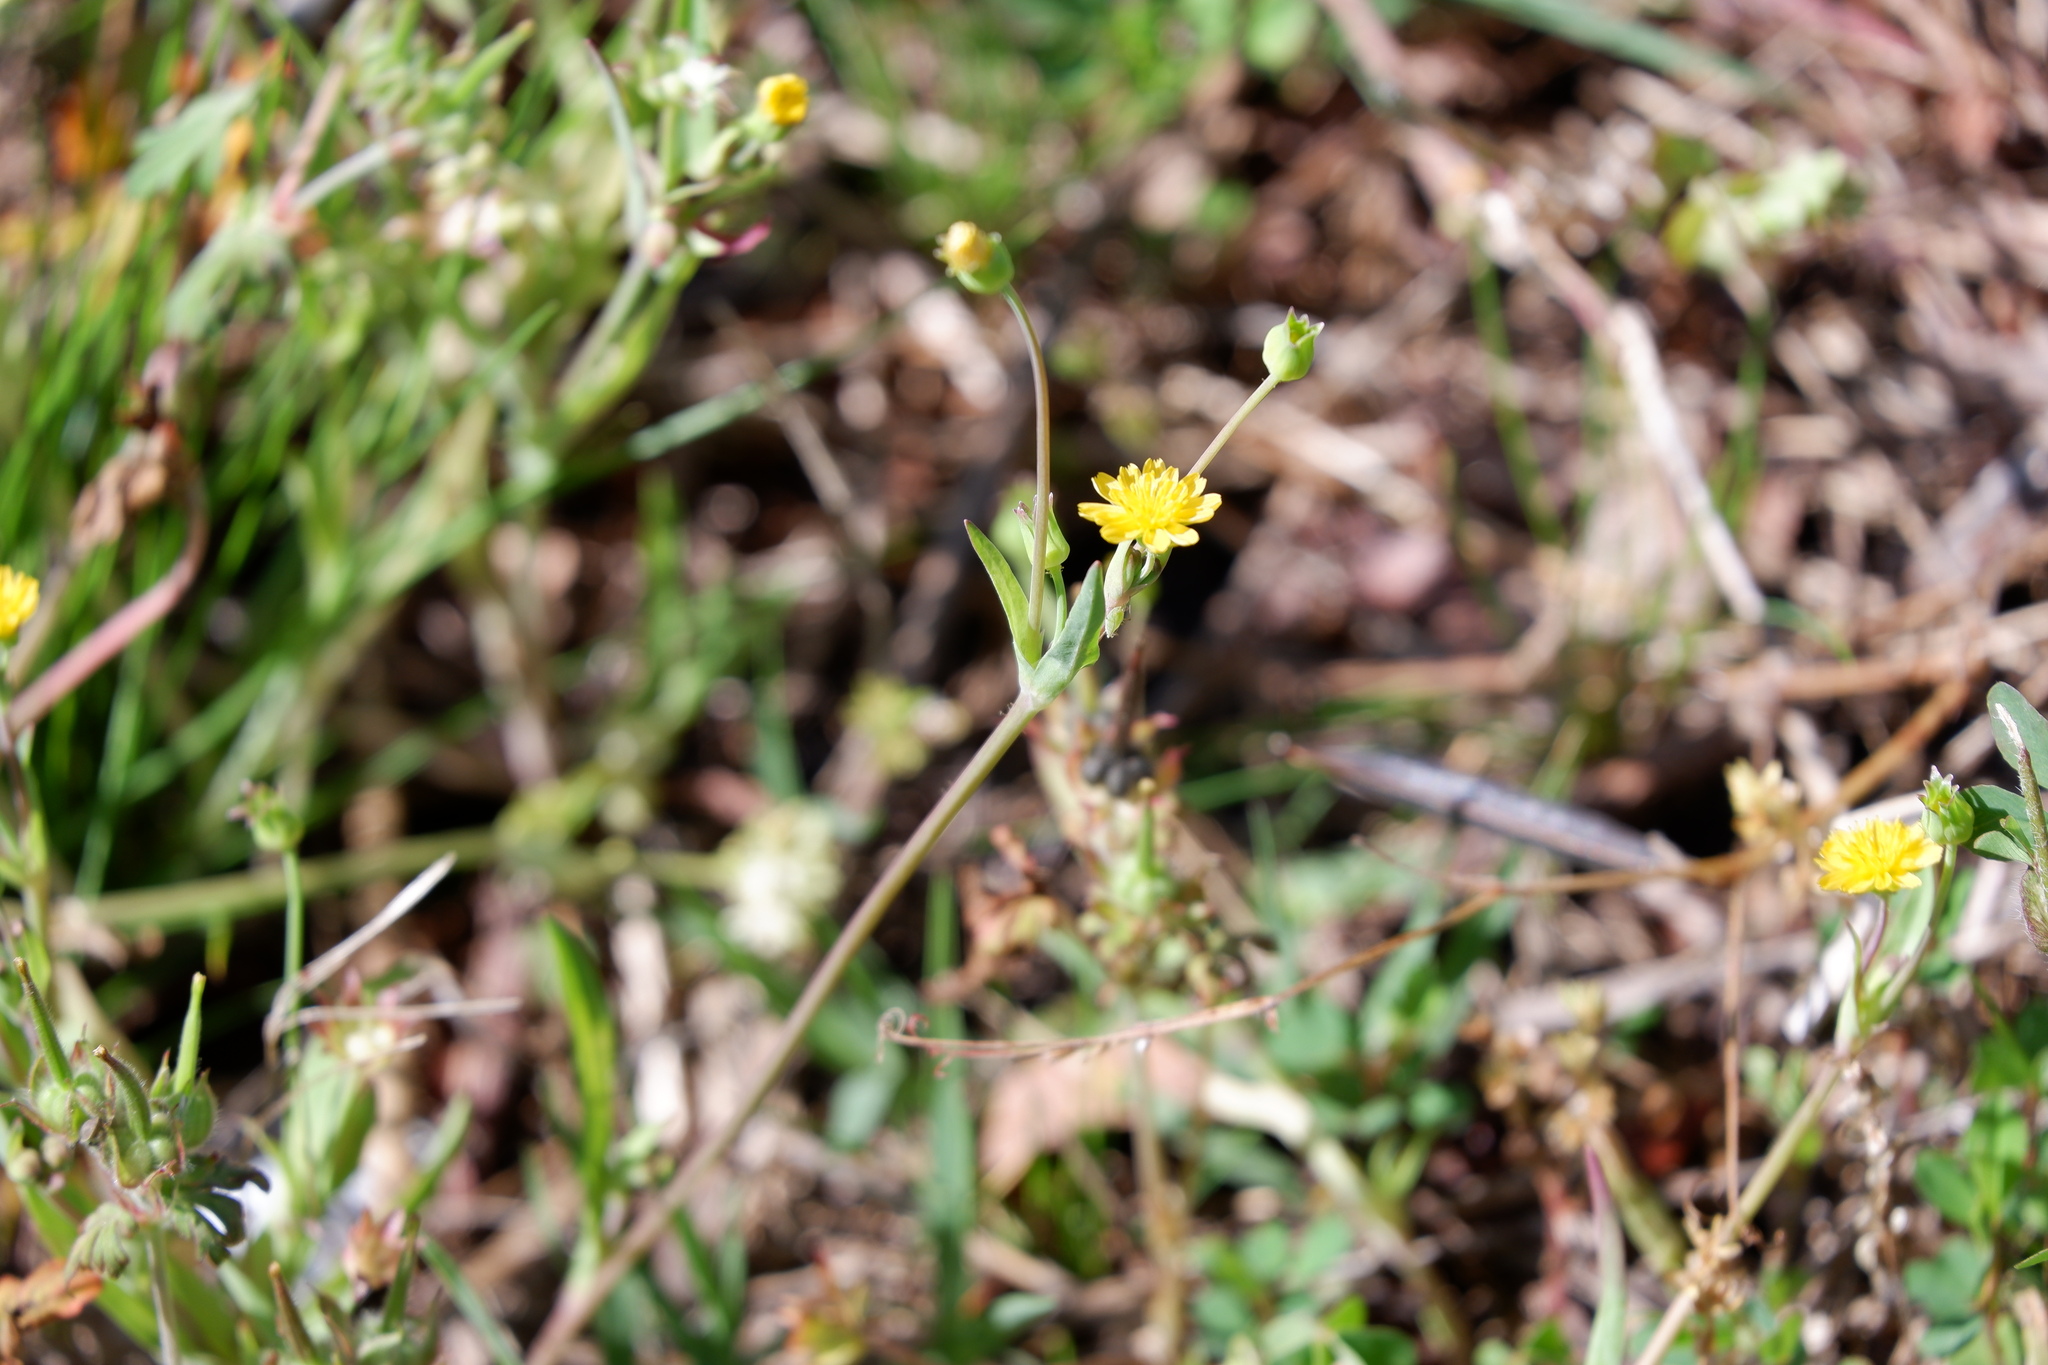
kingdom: Plantae
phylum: Tracheophyta
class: Magnoliopsida
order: Asterales
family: Asteraceae
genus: Krigia
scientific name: Krigia cespitosa
